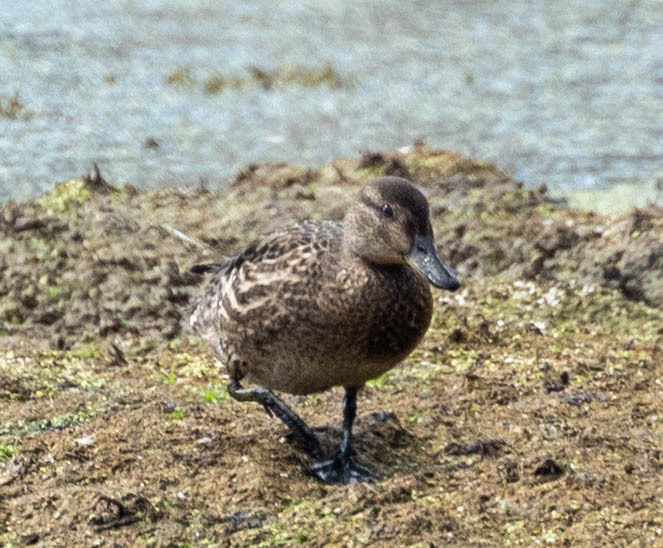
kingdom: Animalia
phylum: Chordata
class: Aves
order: Anseriformes
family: Anatidae
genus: Anas
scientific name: Anas crecca
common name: Eurasian teal
